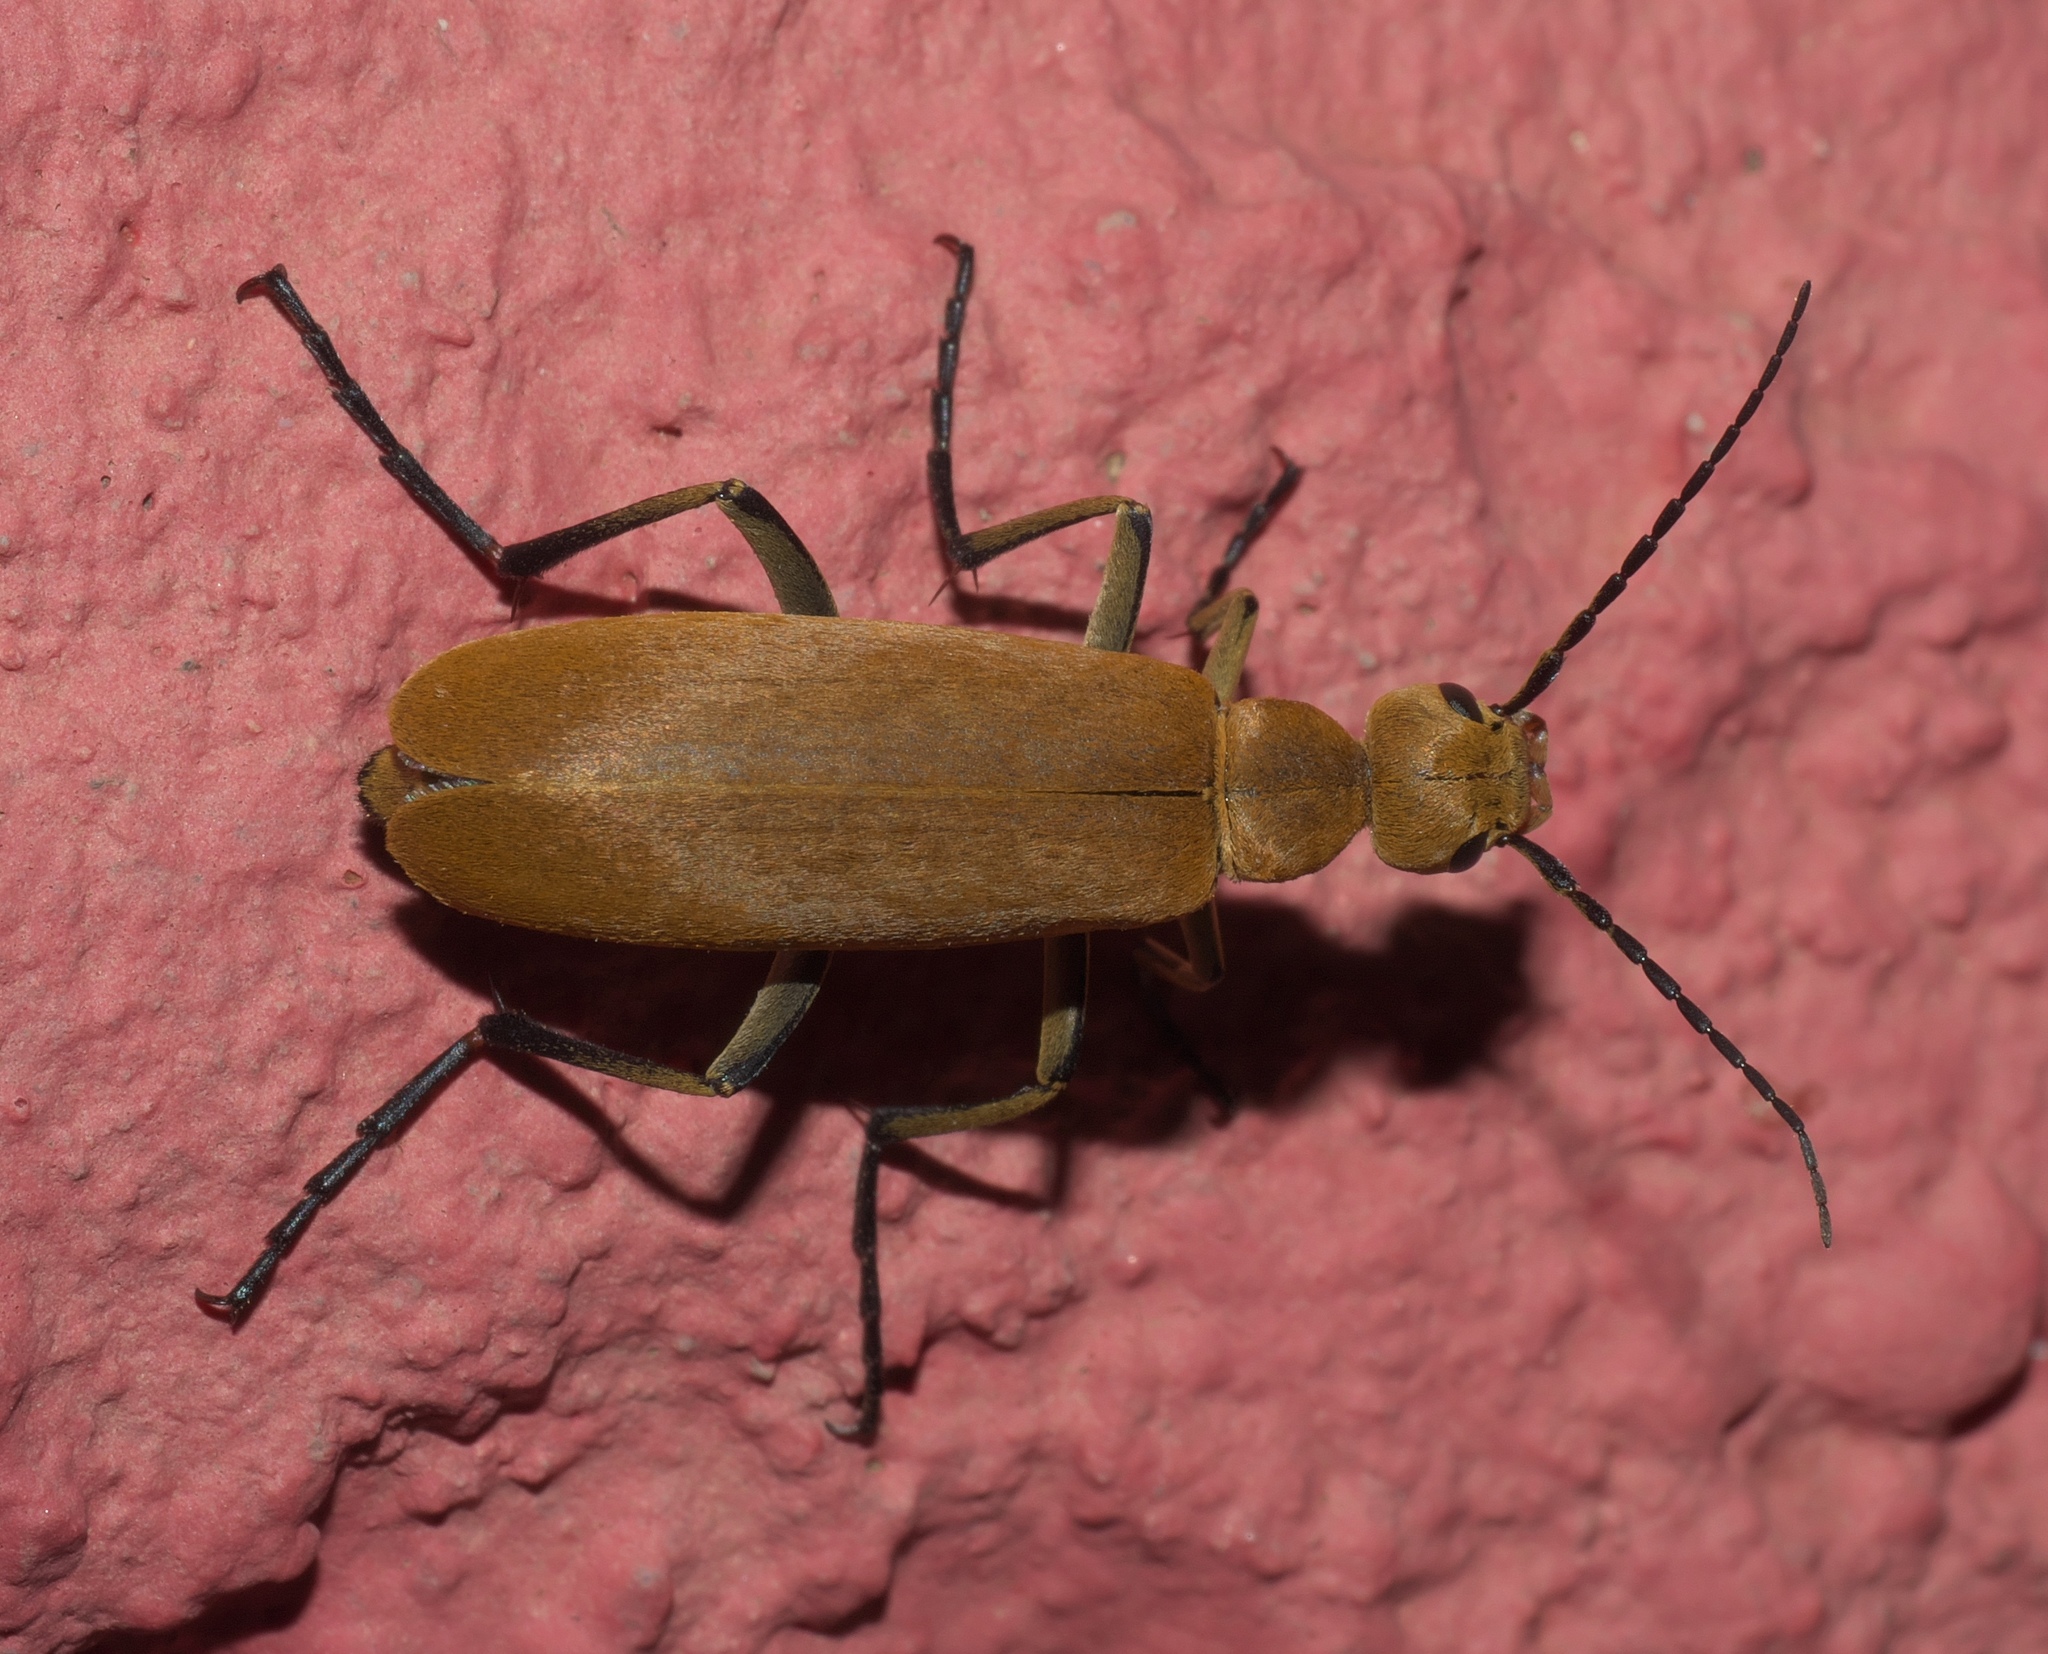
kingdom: Animalia
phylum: Arthropoda
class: Insecta
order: Coleoptera
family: Meloidae
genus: Epicauta
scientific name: Epicauta immaculata
